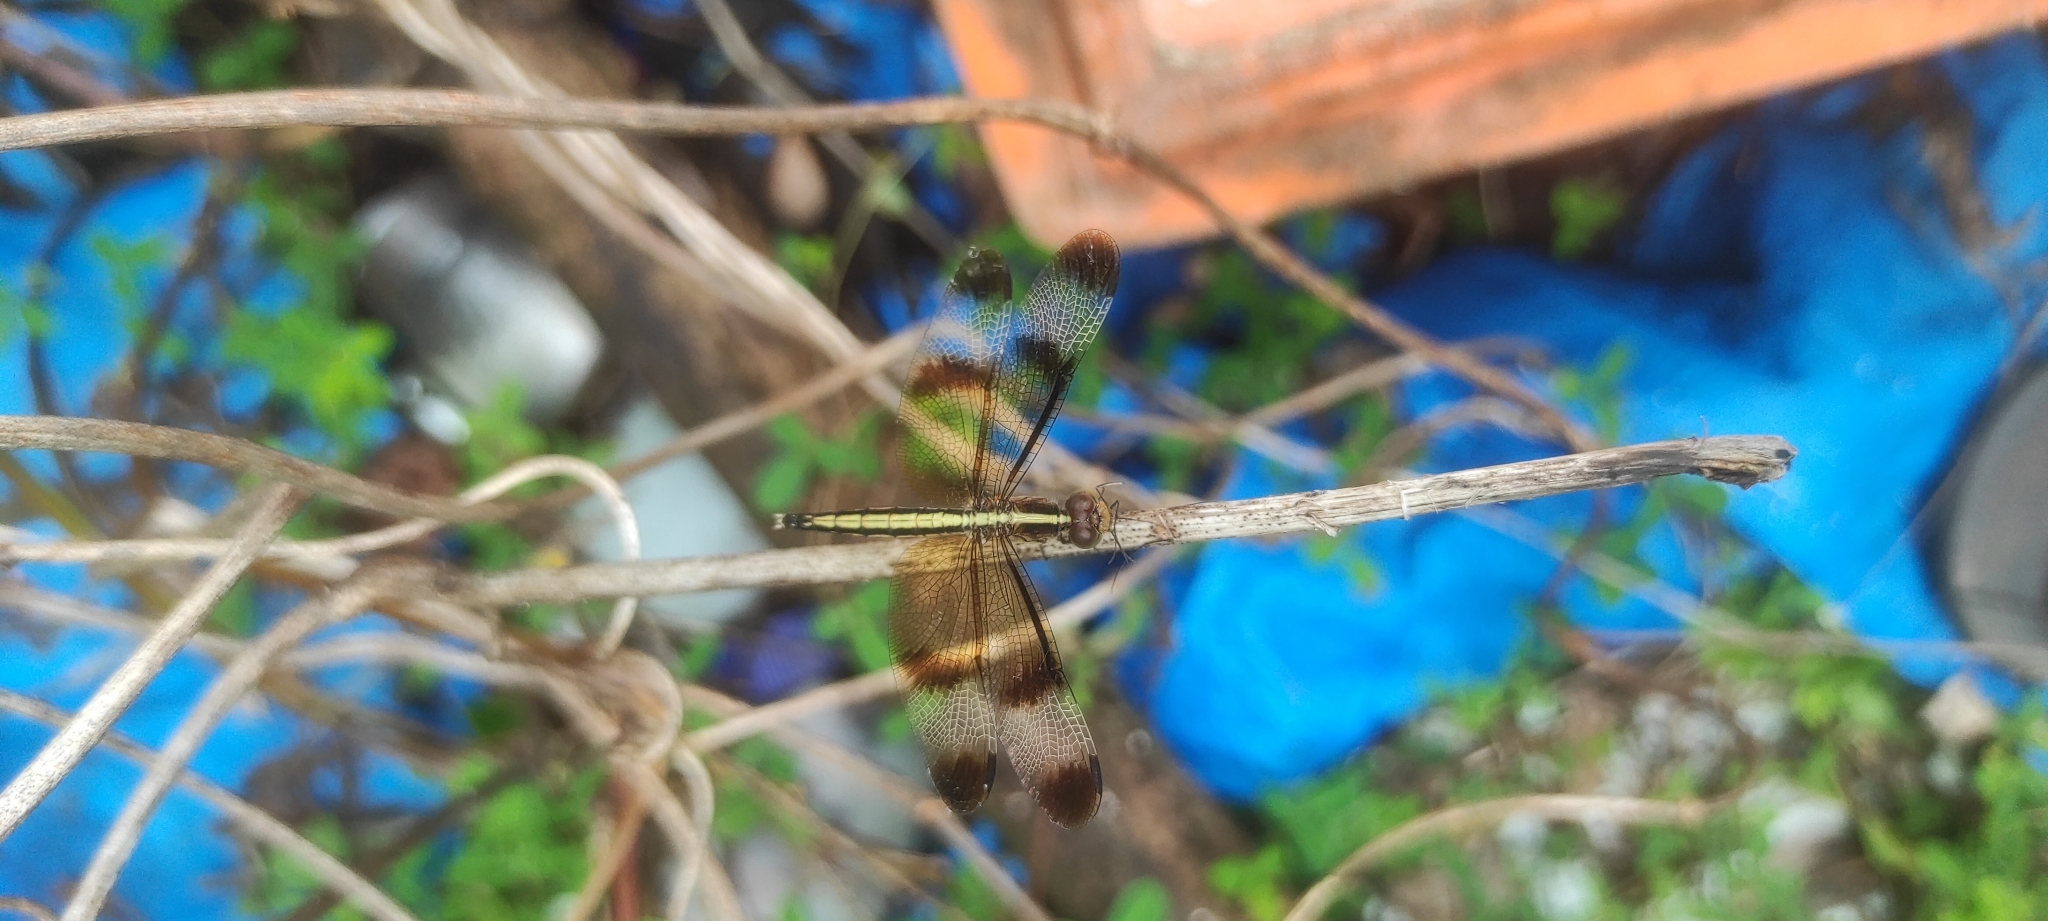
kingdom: Animalia
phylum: Arthropoda
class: Insecta
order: Odonata
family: Libellulidae
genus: Neurothemis
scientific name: Neurothemis tullia
